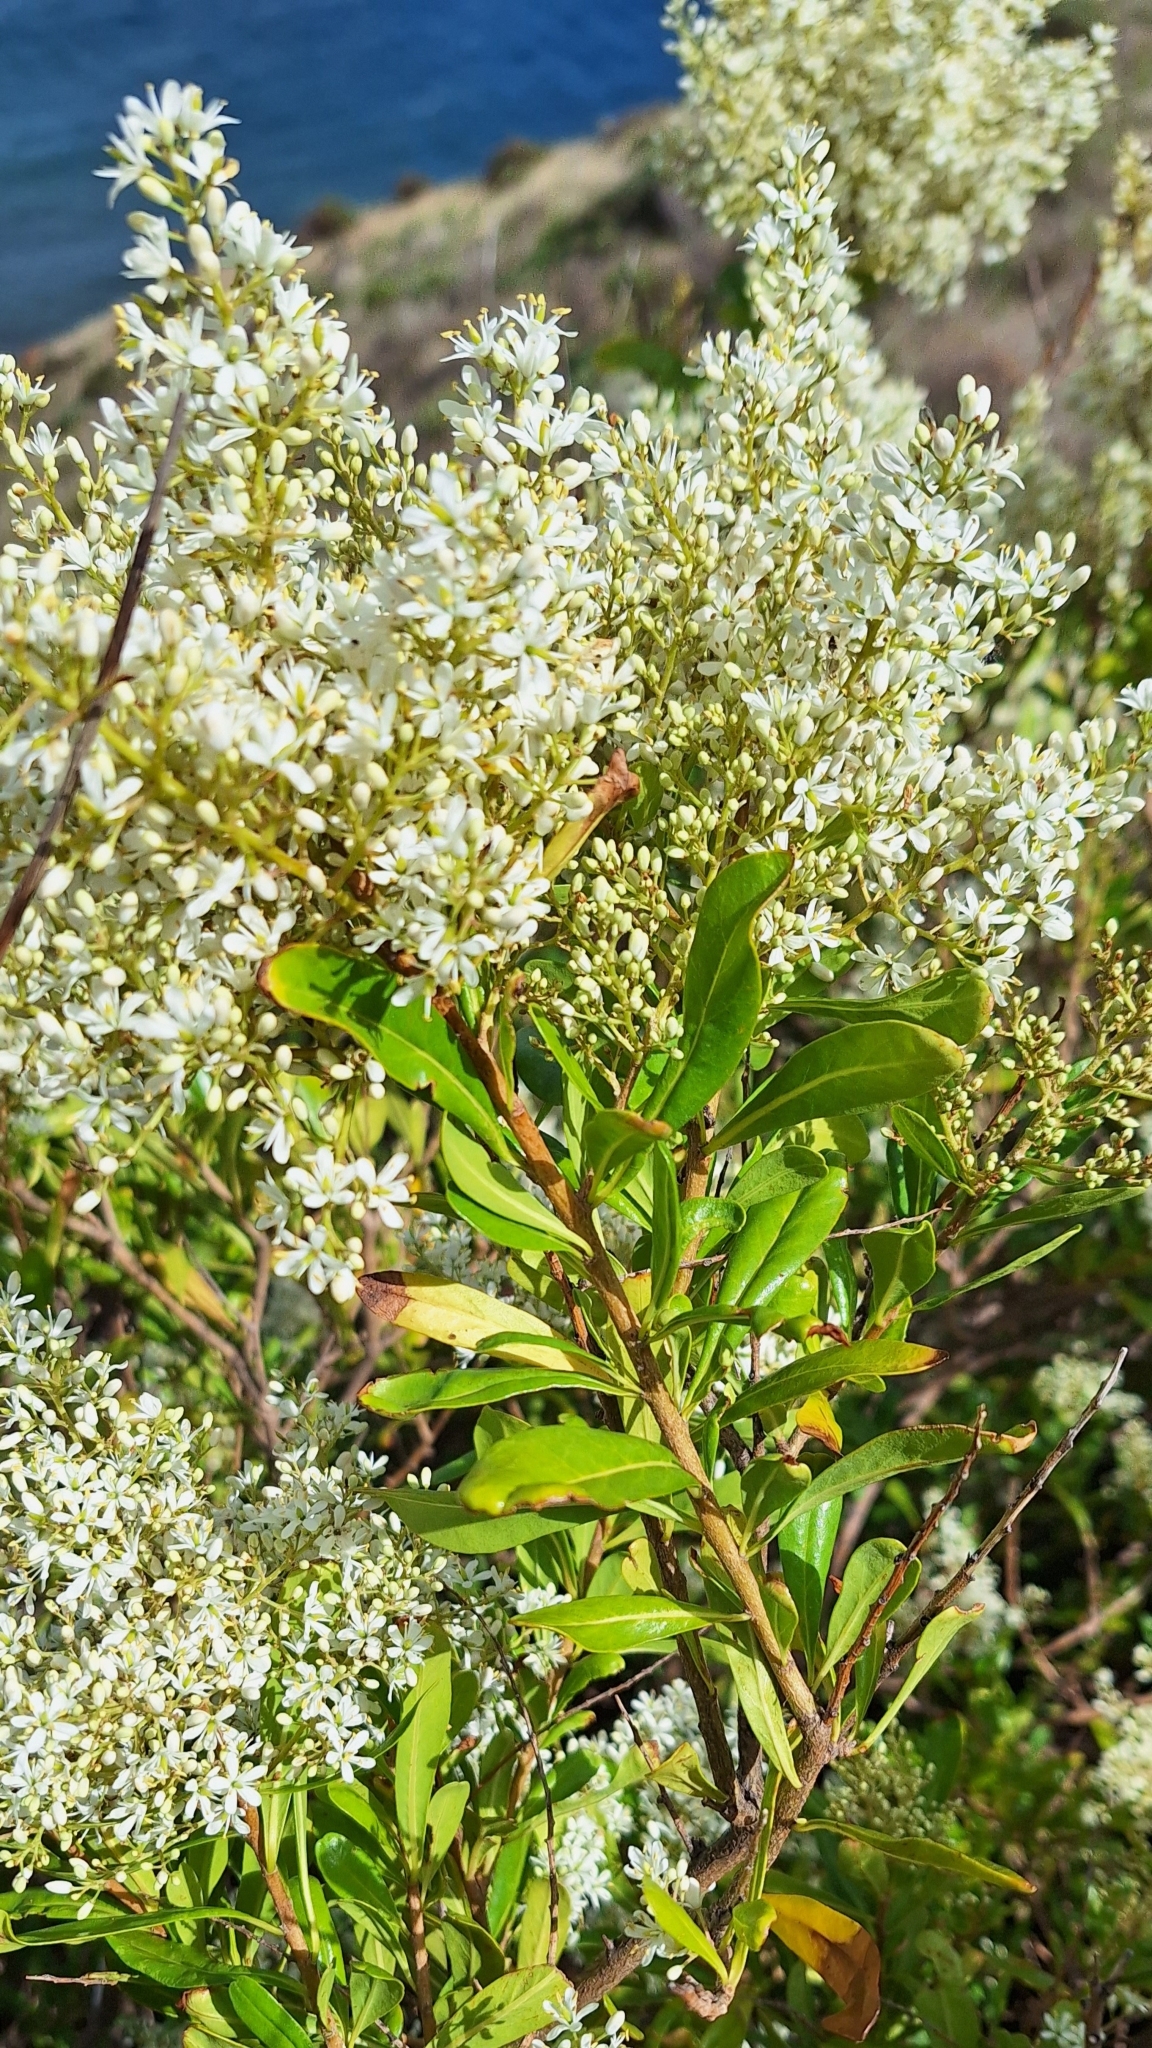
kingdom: Plantae
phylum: Tracheophyta
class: Magnoliopsida
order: Apiales
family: Pittosporaceae
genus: Bursaria
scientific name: Bursaria spinosa
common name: Australian blackthorn
